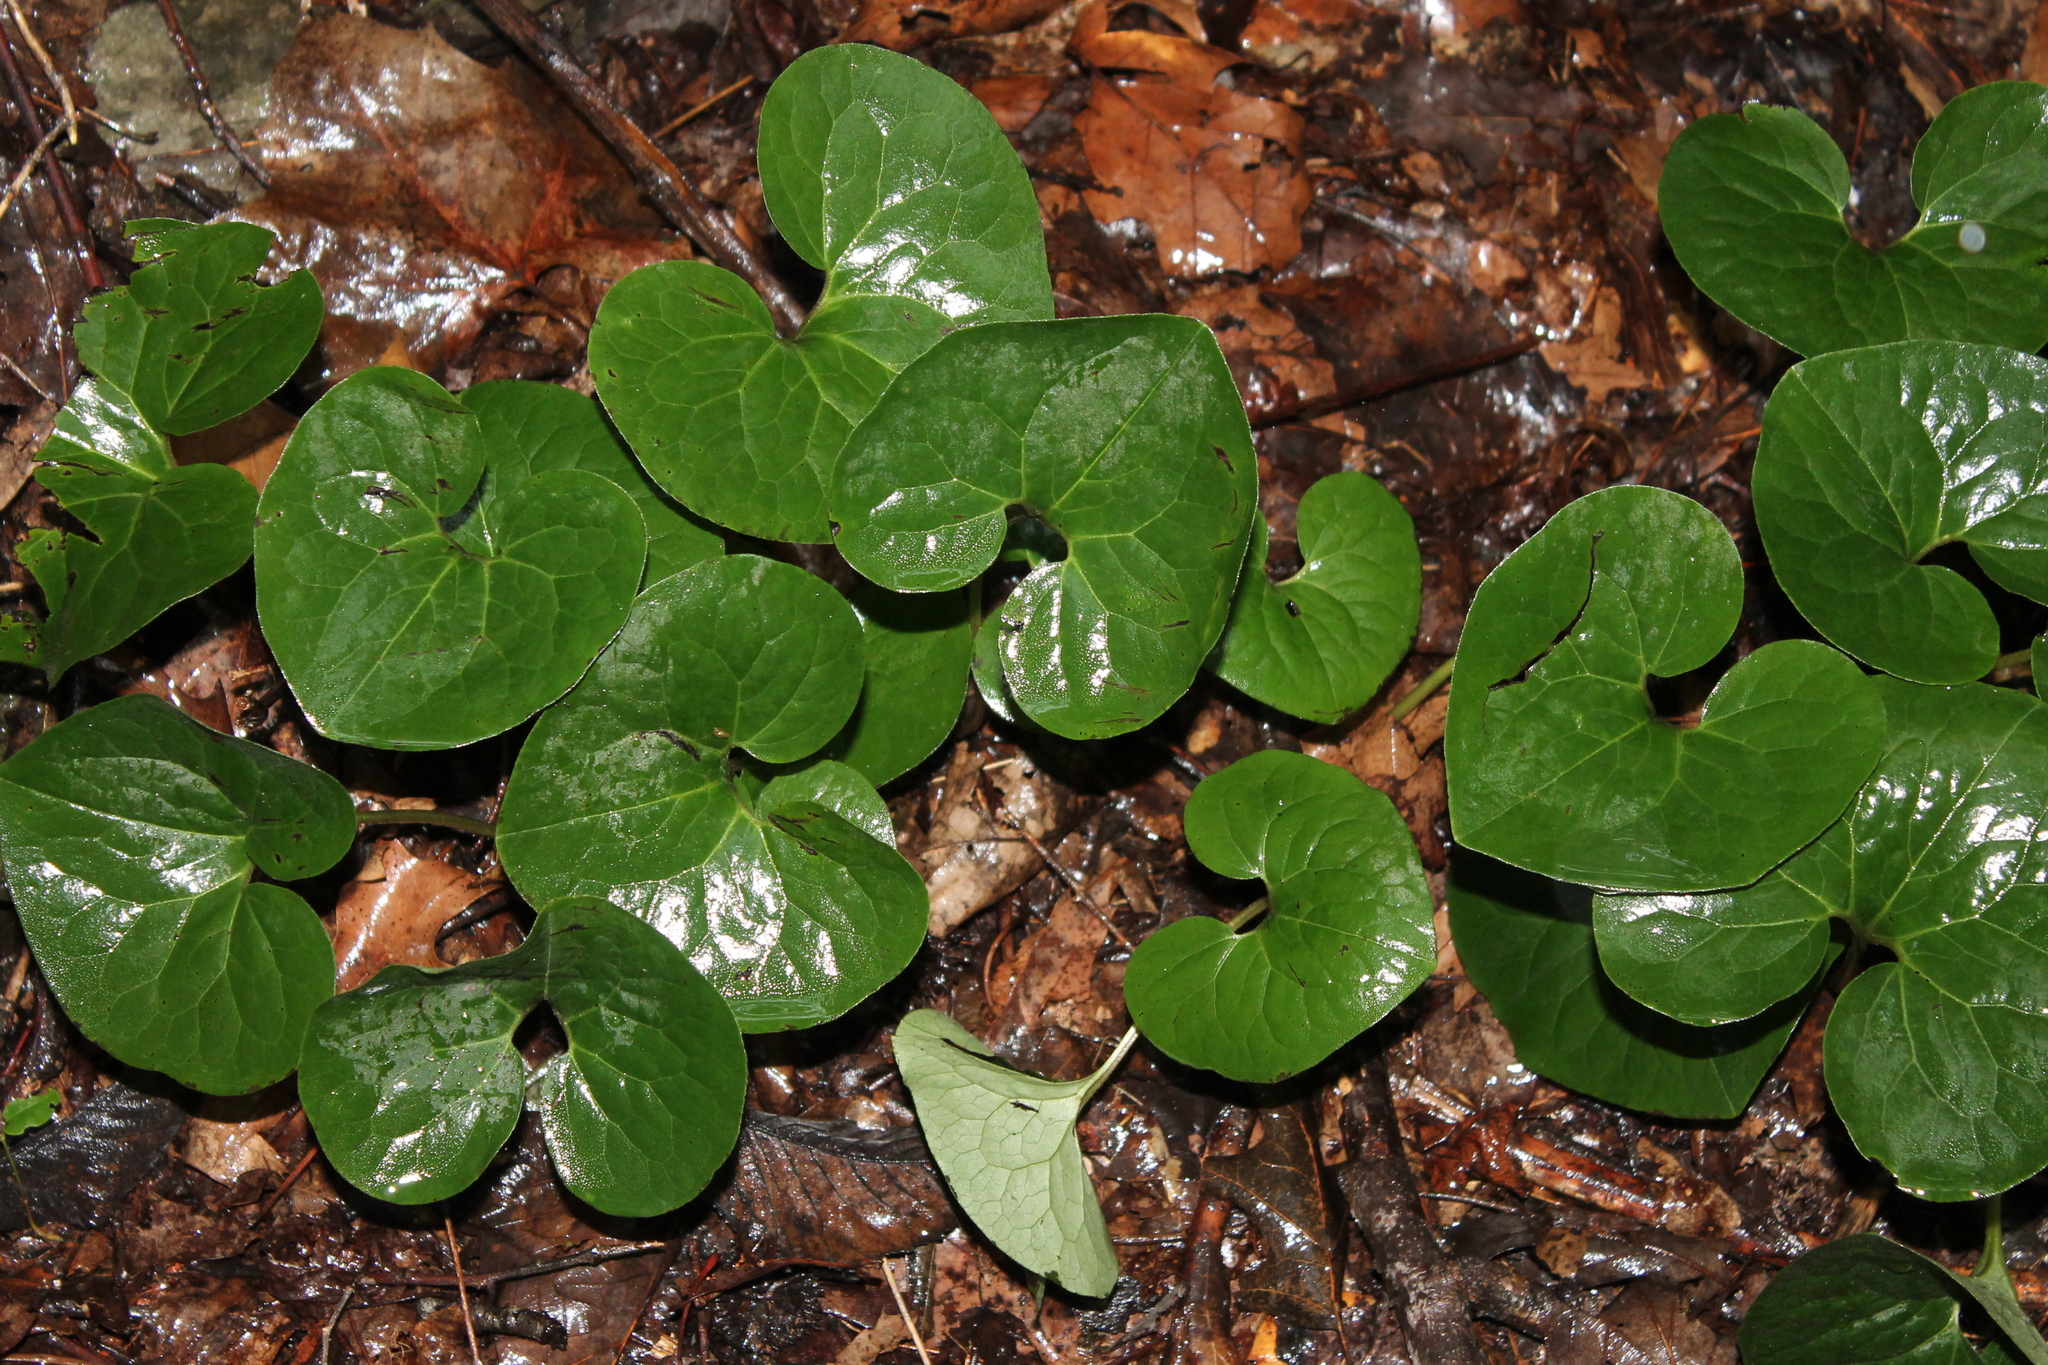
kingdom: Plantae
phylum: Tracheophyta
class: Magnoliopsida
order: Piperales
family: Aristolochiaceae
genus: Asarum
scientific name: Asarum canadense
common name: Wild ginger
